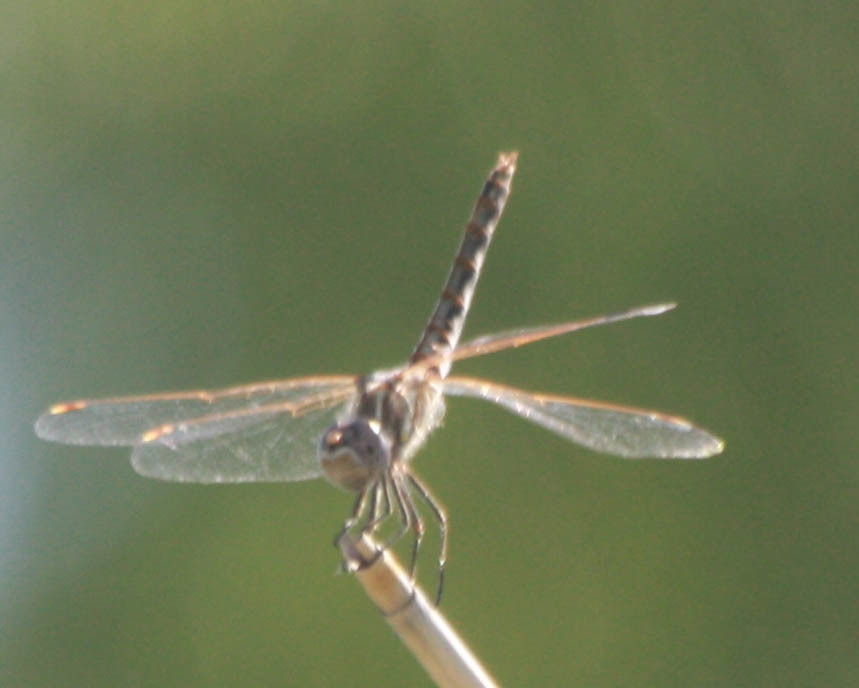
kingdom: Animalia
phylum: Arthropoda
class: Insecta
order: Odonata
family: Libellulidae
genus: Sympetrum
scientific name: Sympetrum corruptum
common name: Variegated meadowhawk
